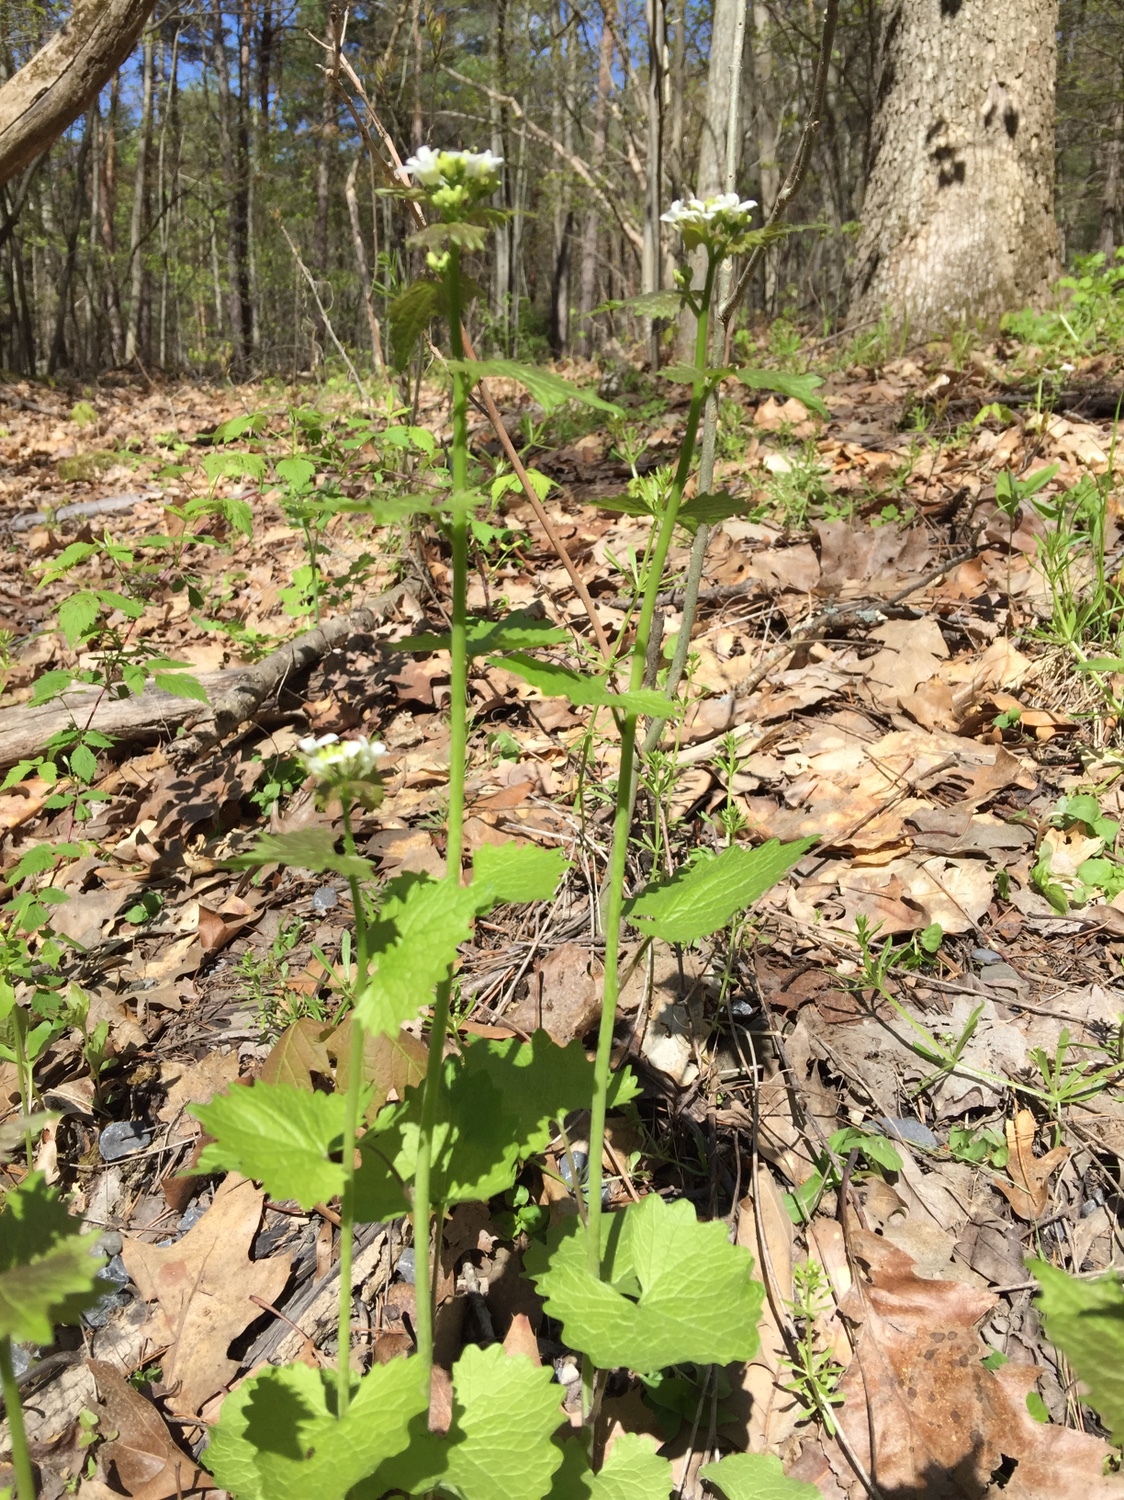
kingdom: Plantae
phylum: Tracheophyta
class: Magnoliopsida
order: Brassicales
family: Brassicaceae
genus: Alliaria
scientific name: Alliaria petiolata
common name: Garlic mustard
